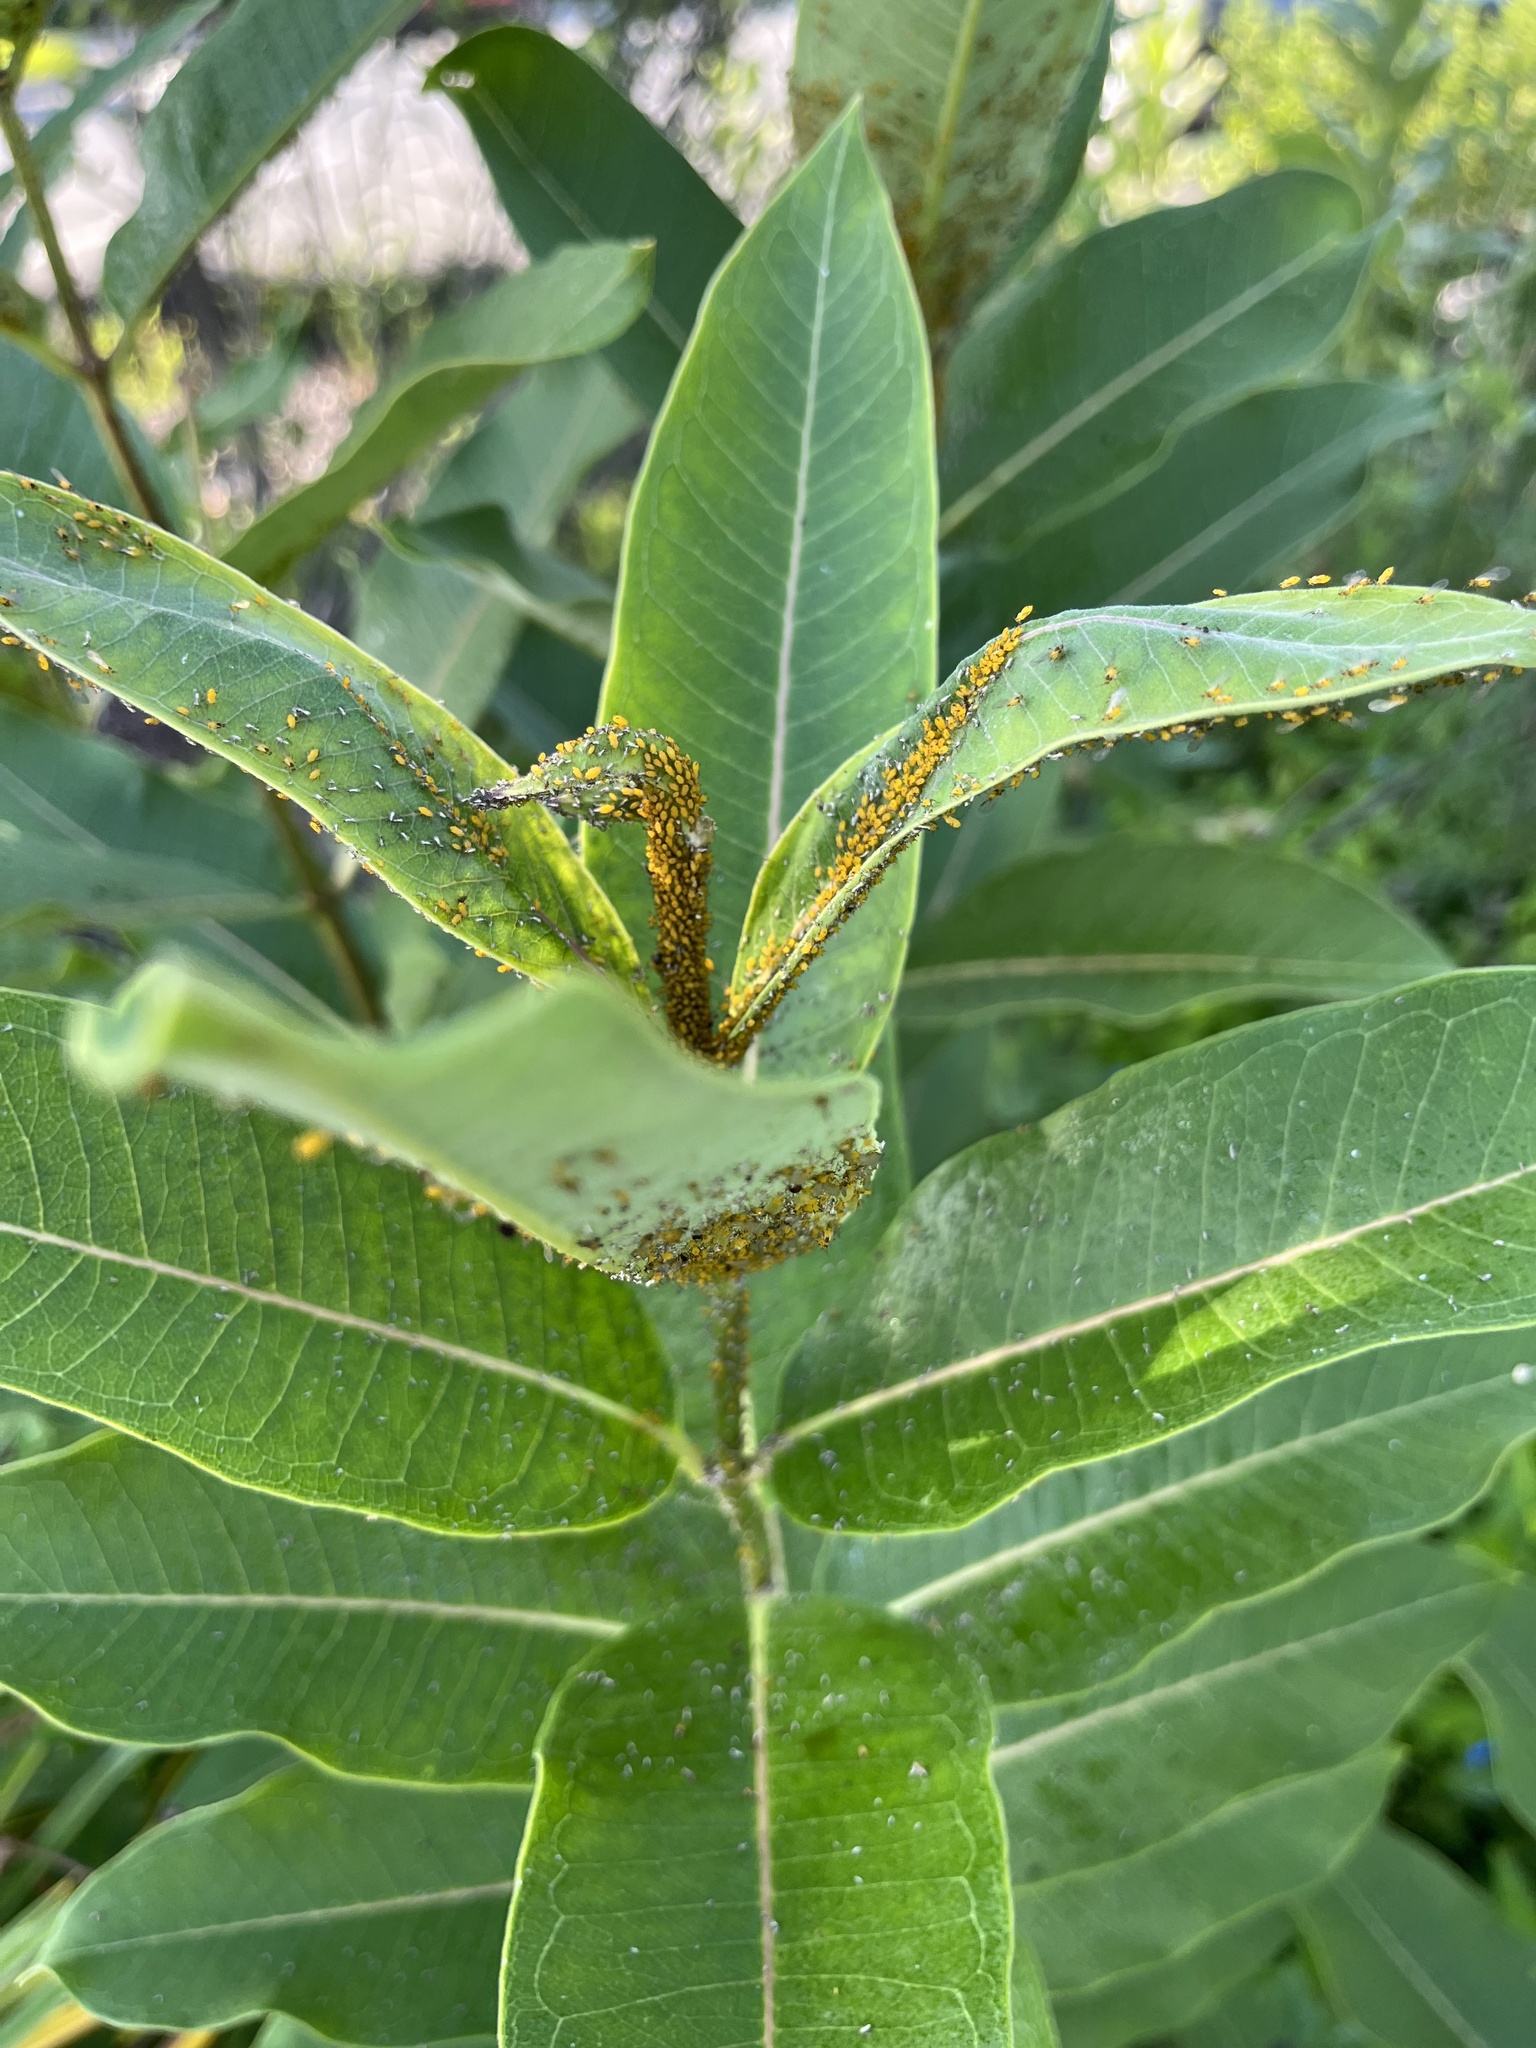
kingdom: Animalia
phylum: Arthropoda
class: Insecta
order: Hemiptera
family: Aphididae
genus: Aphis
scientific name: Aphis nerii
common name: Oleander aphid
